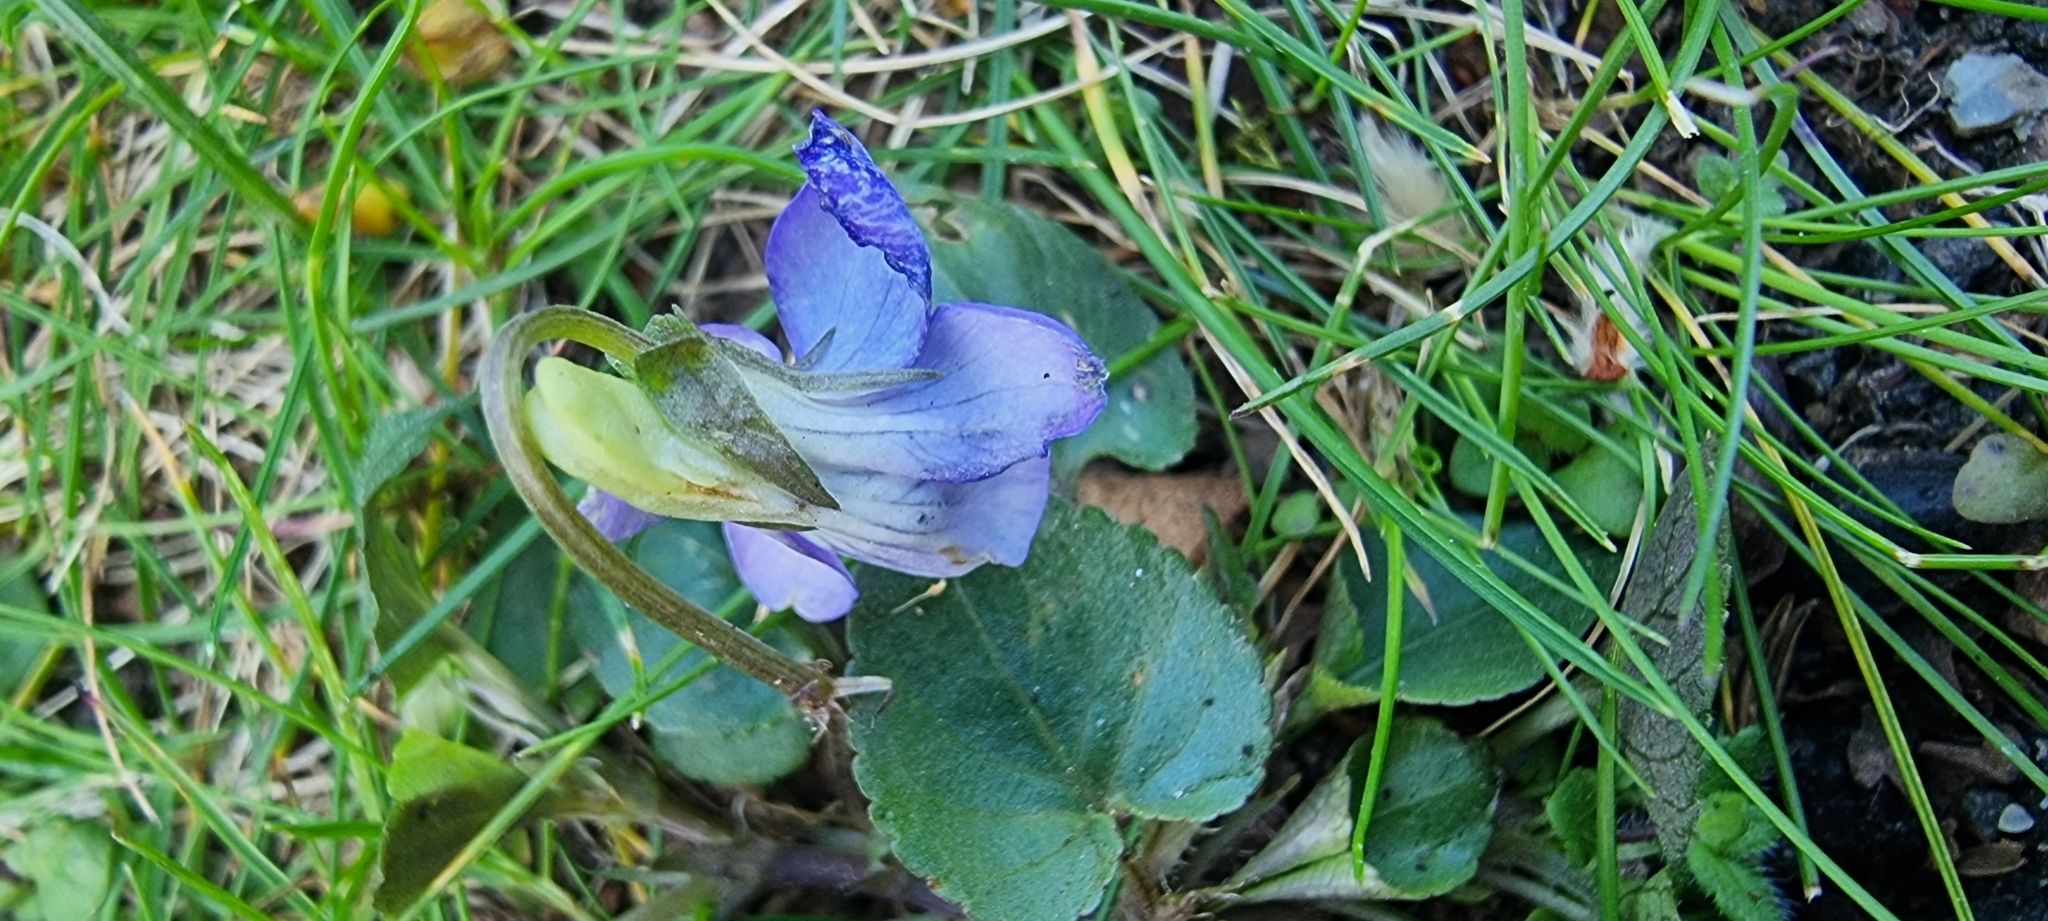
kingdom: Plantae
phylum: Tracheophyta
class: Magnoliopsida
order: Malpighiales
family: Violaceae
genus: Viola
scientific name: Viola riviniana
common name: Common dog-violet
